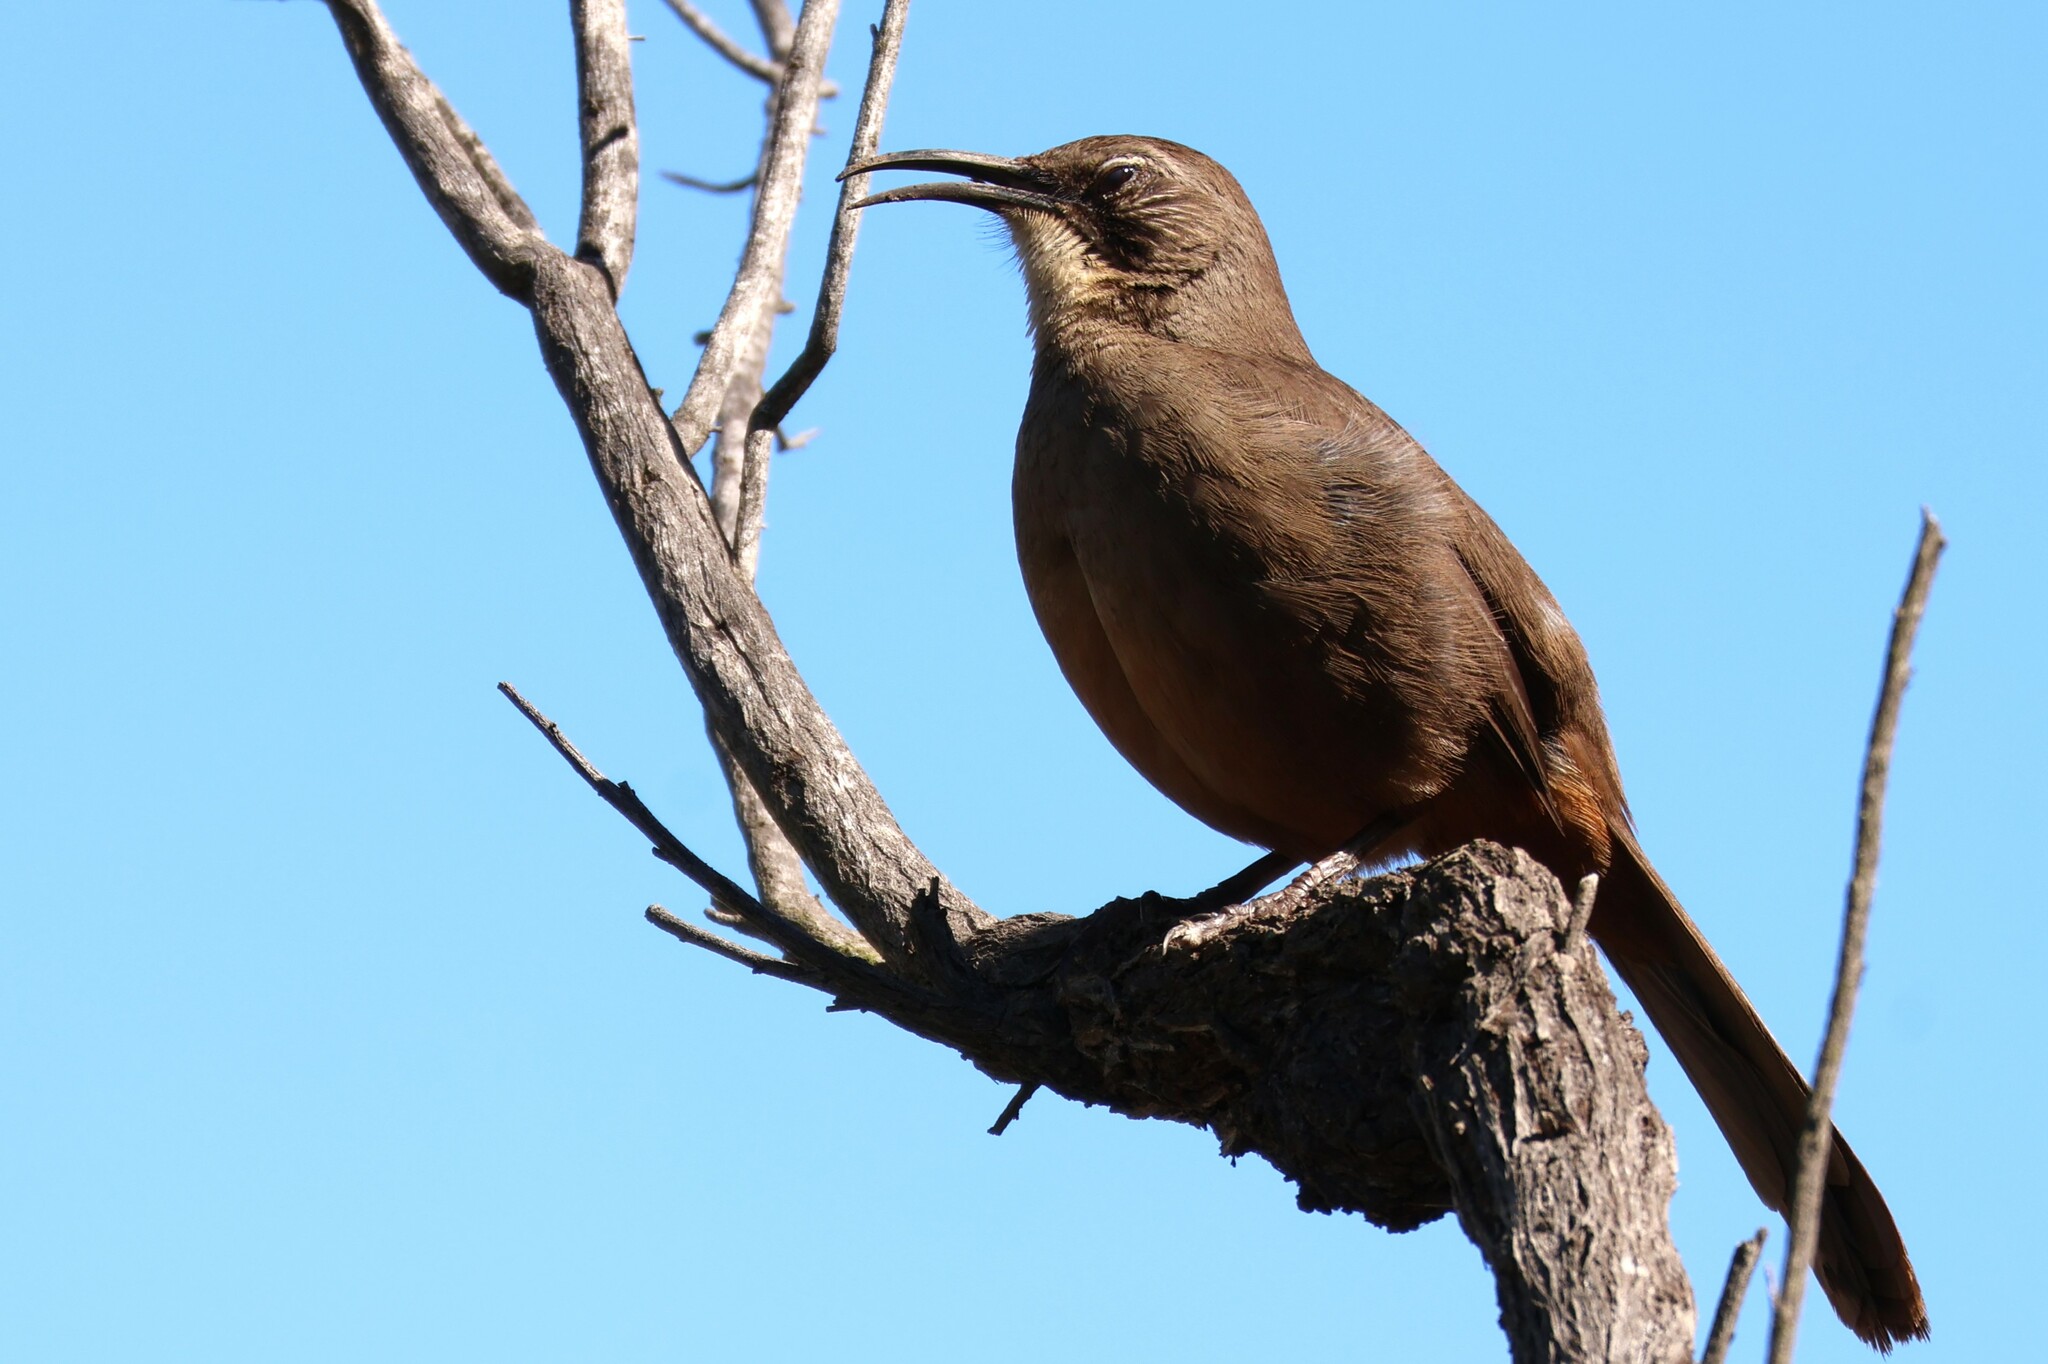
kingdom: Animalia
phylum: Chordata
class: Aves
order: Passeriformes
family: Mimidae
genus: Toxostoma
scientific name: Toxostoma redivivum
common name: California thrasher
